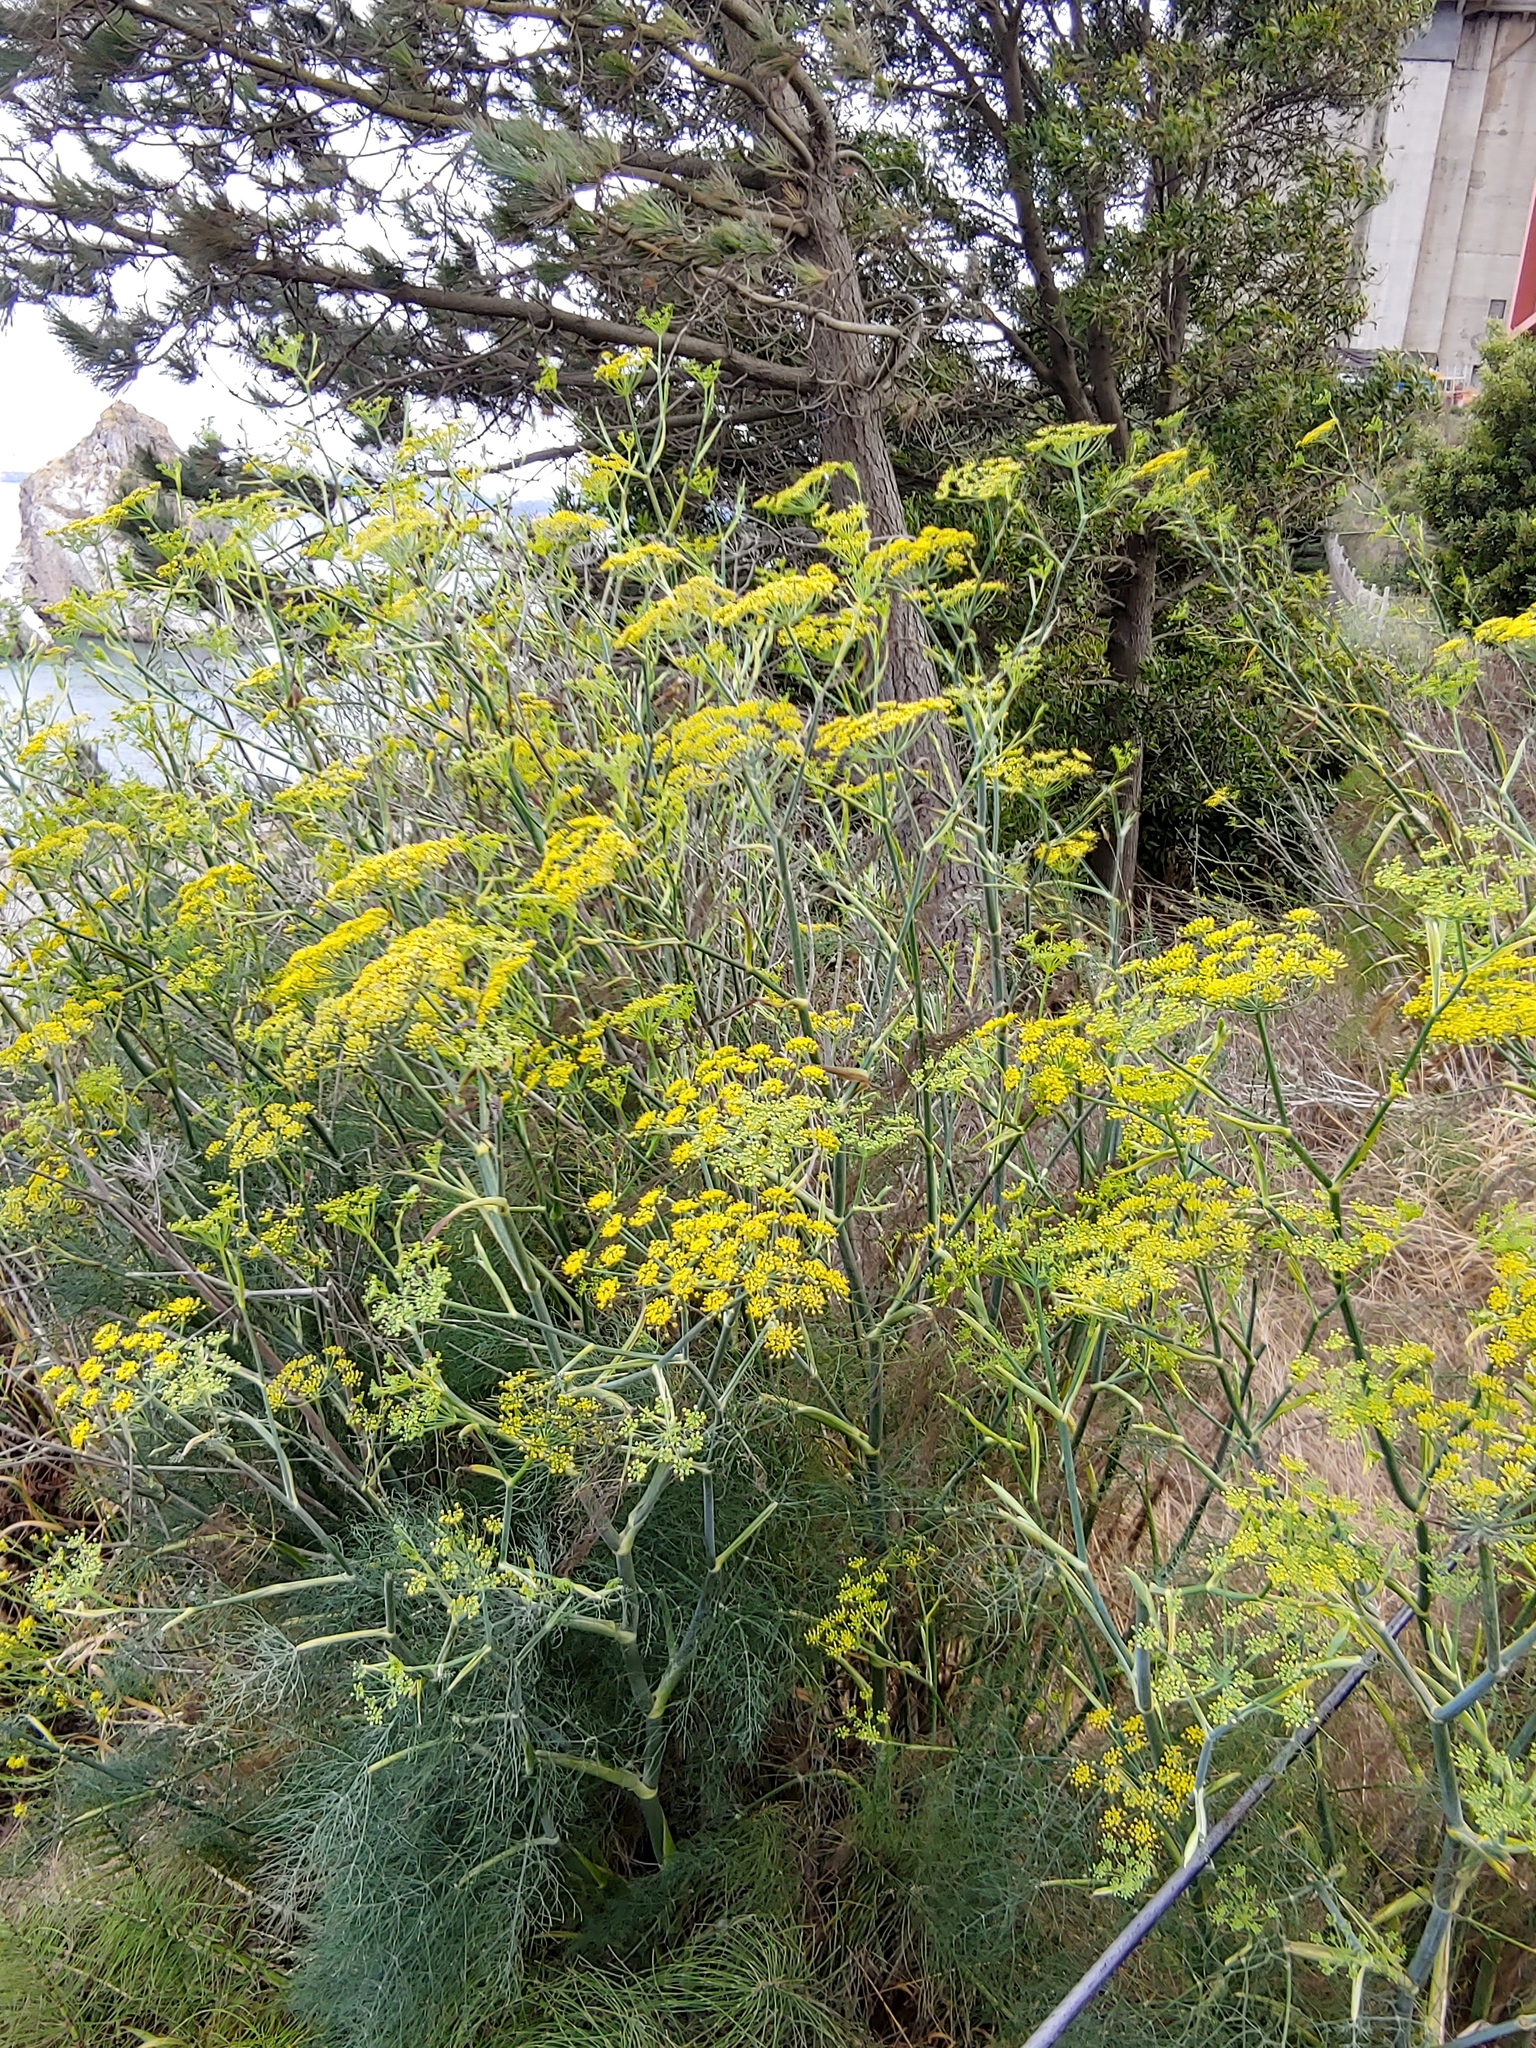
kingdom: Plantae
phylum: Tracheophyta
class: Magnoliopsida
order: Apiales
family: Apiaceae
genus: Foeniculum
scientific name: Foeniculum vulgare
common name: Fennel
